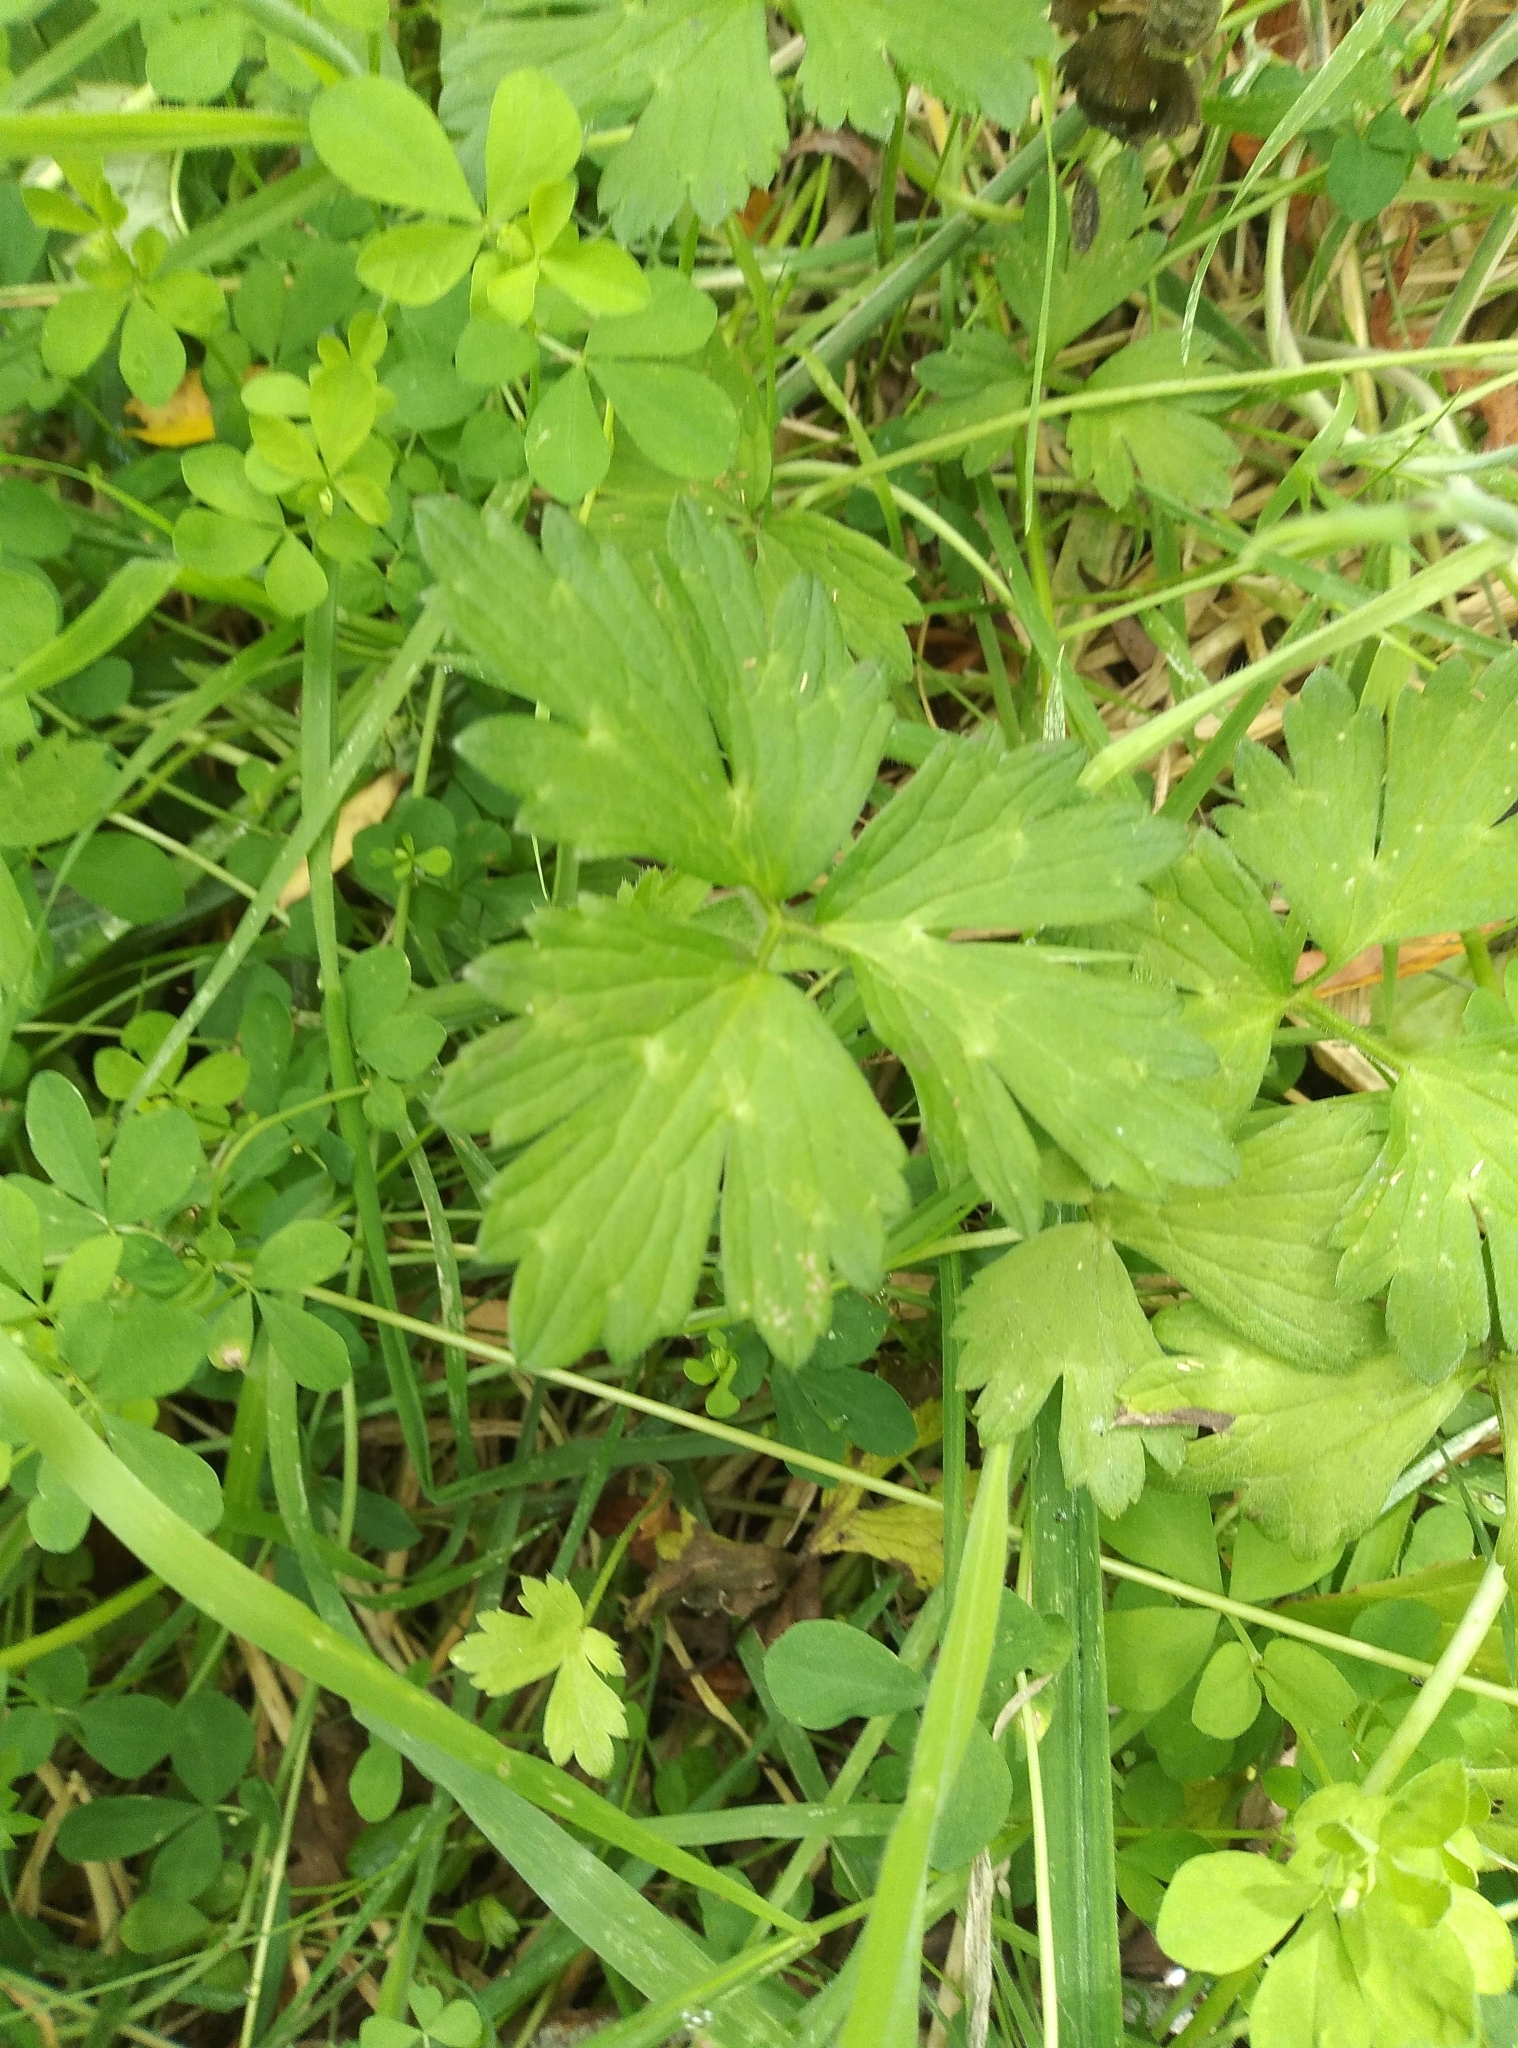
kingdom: Plantae
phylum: Tracheophyta
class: Magnoliopsida
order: Ranunculales
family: Ranunculaceae
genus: Ranunculus
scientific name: Ranunculus repens
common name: Creeping buttercup
